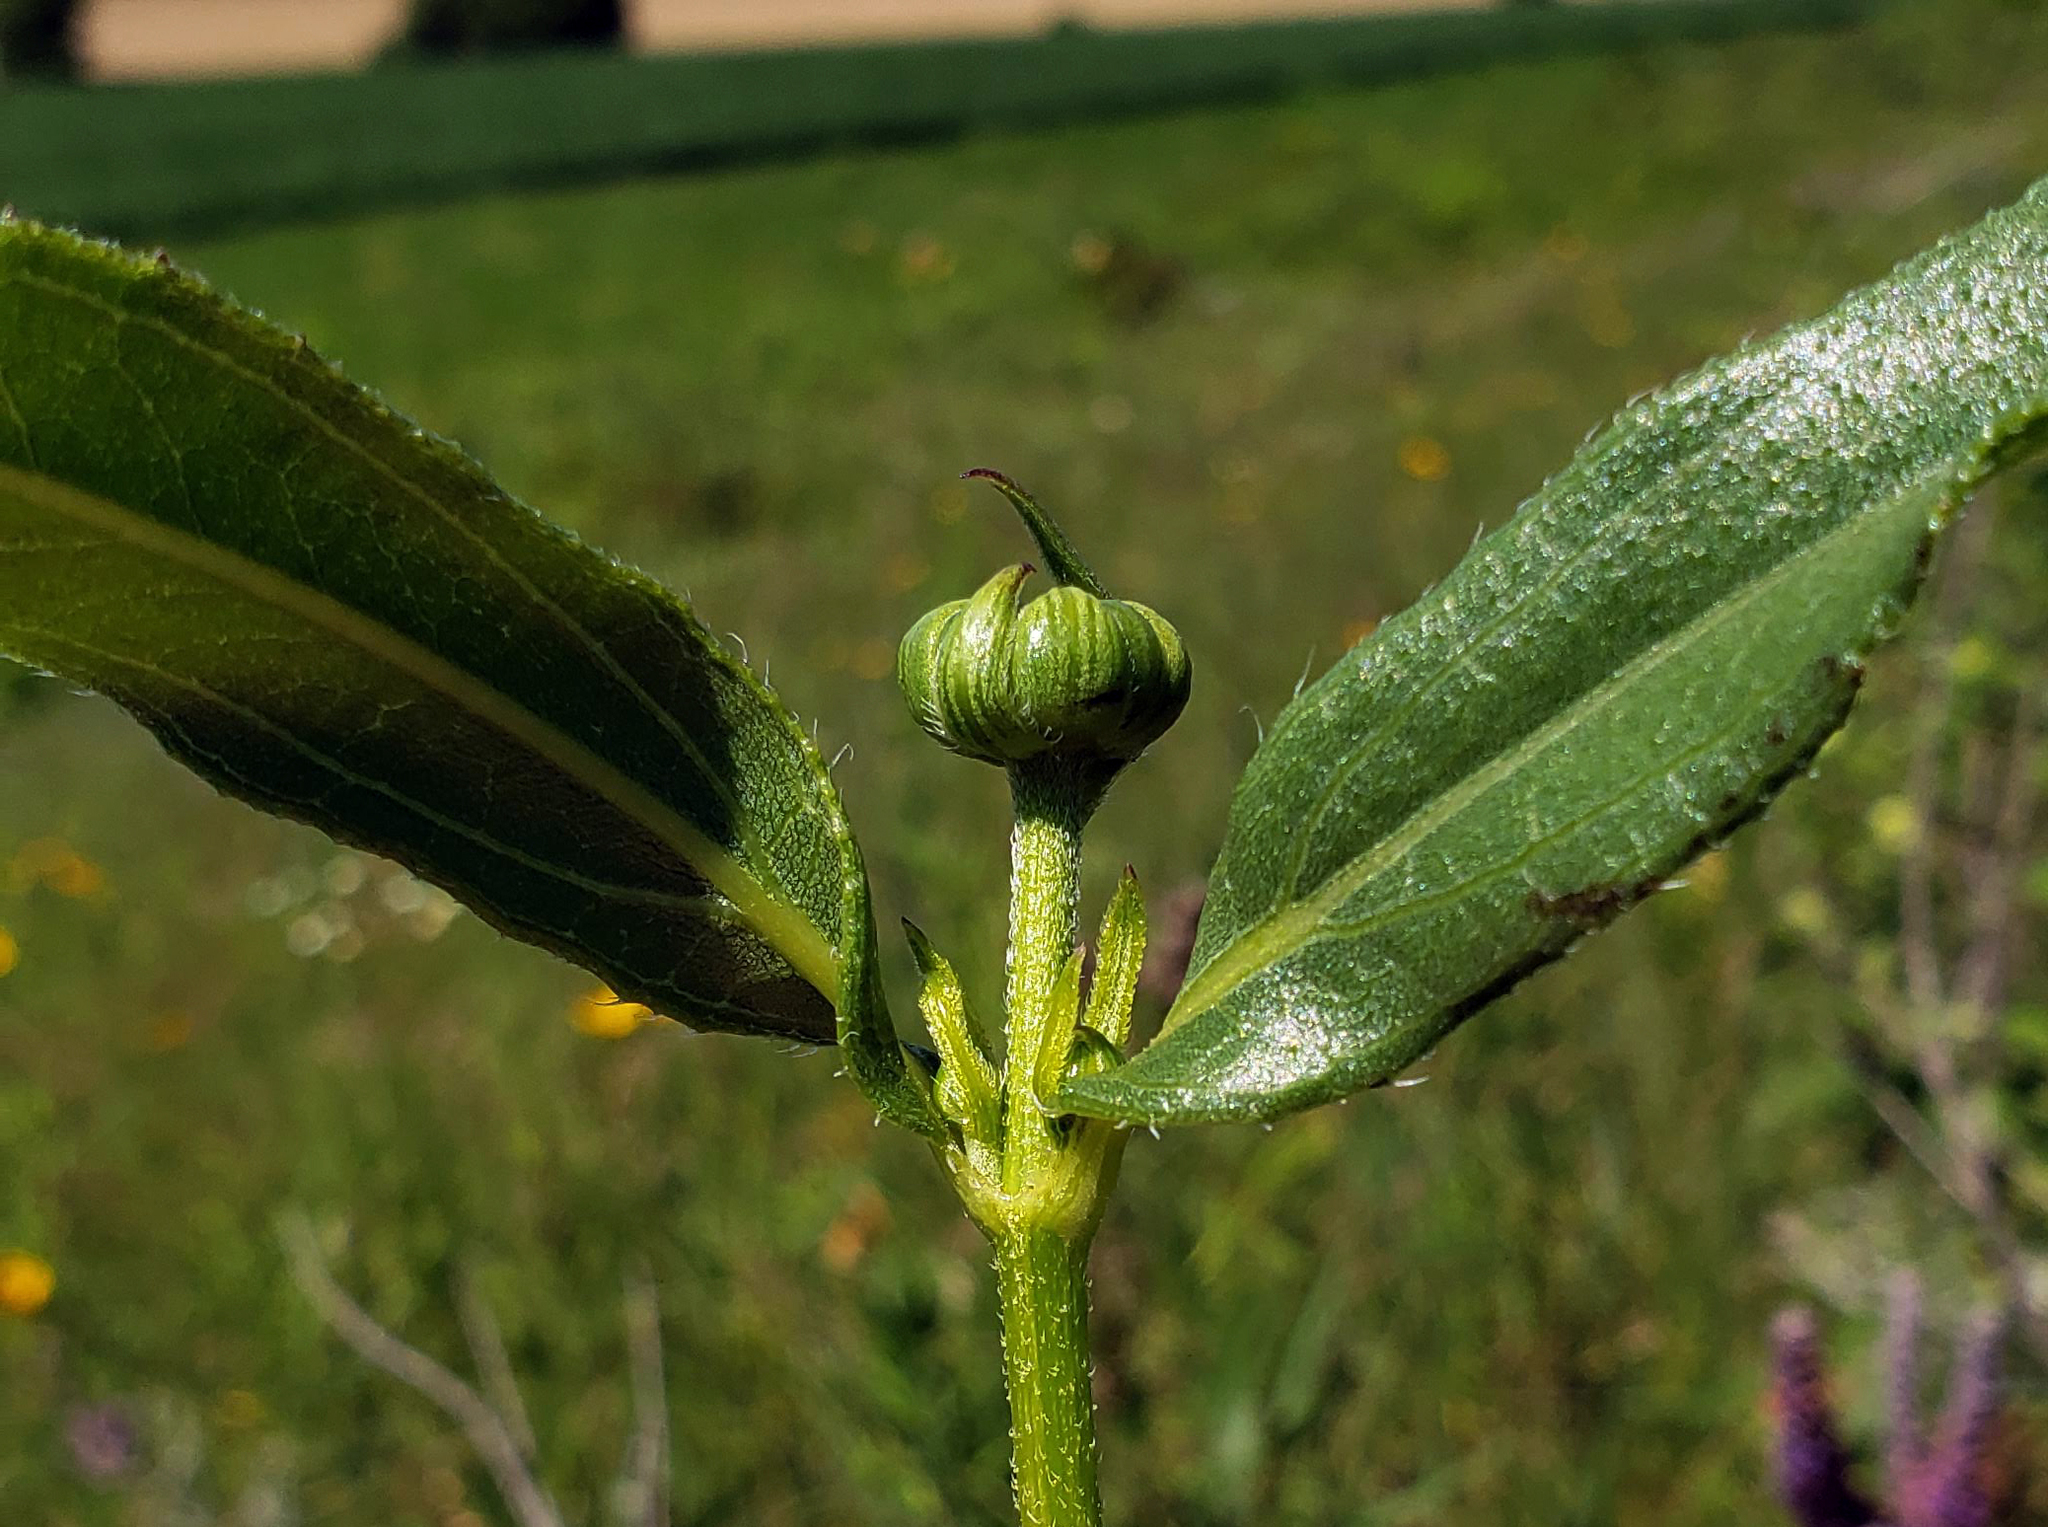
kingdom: Plantae
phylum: Tracheophyta
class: Magnoliopsida
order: Asterales
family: Asteraceae
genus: Helianthus
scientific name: Helianthus pauciflorus
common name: Stiff sunflower
